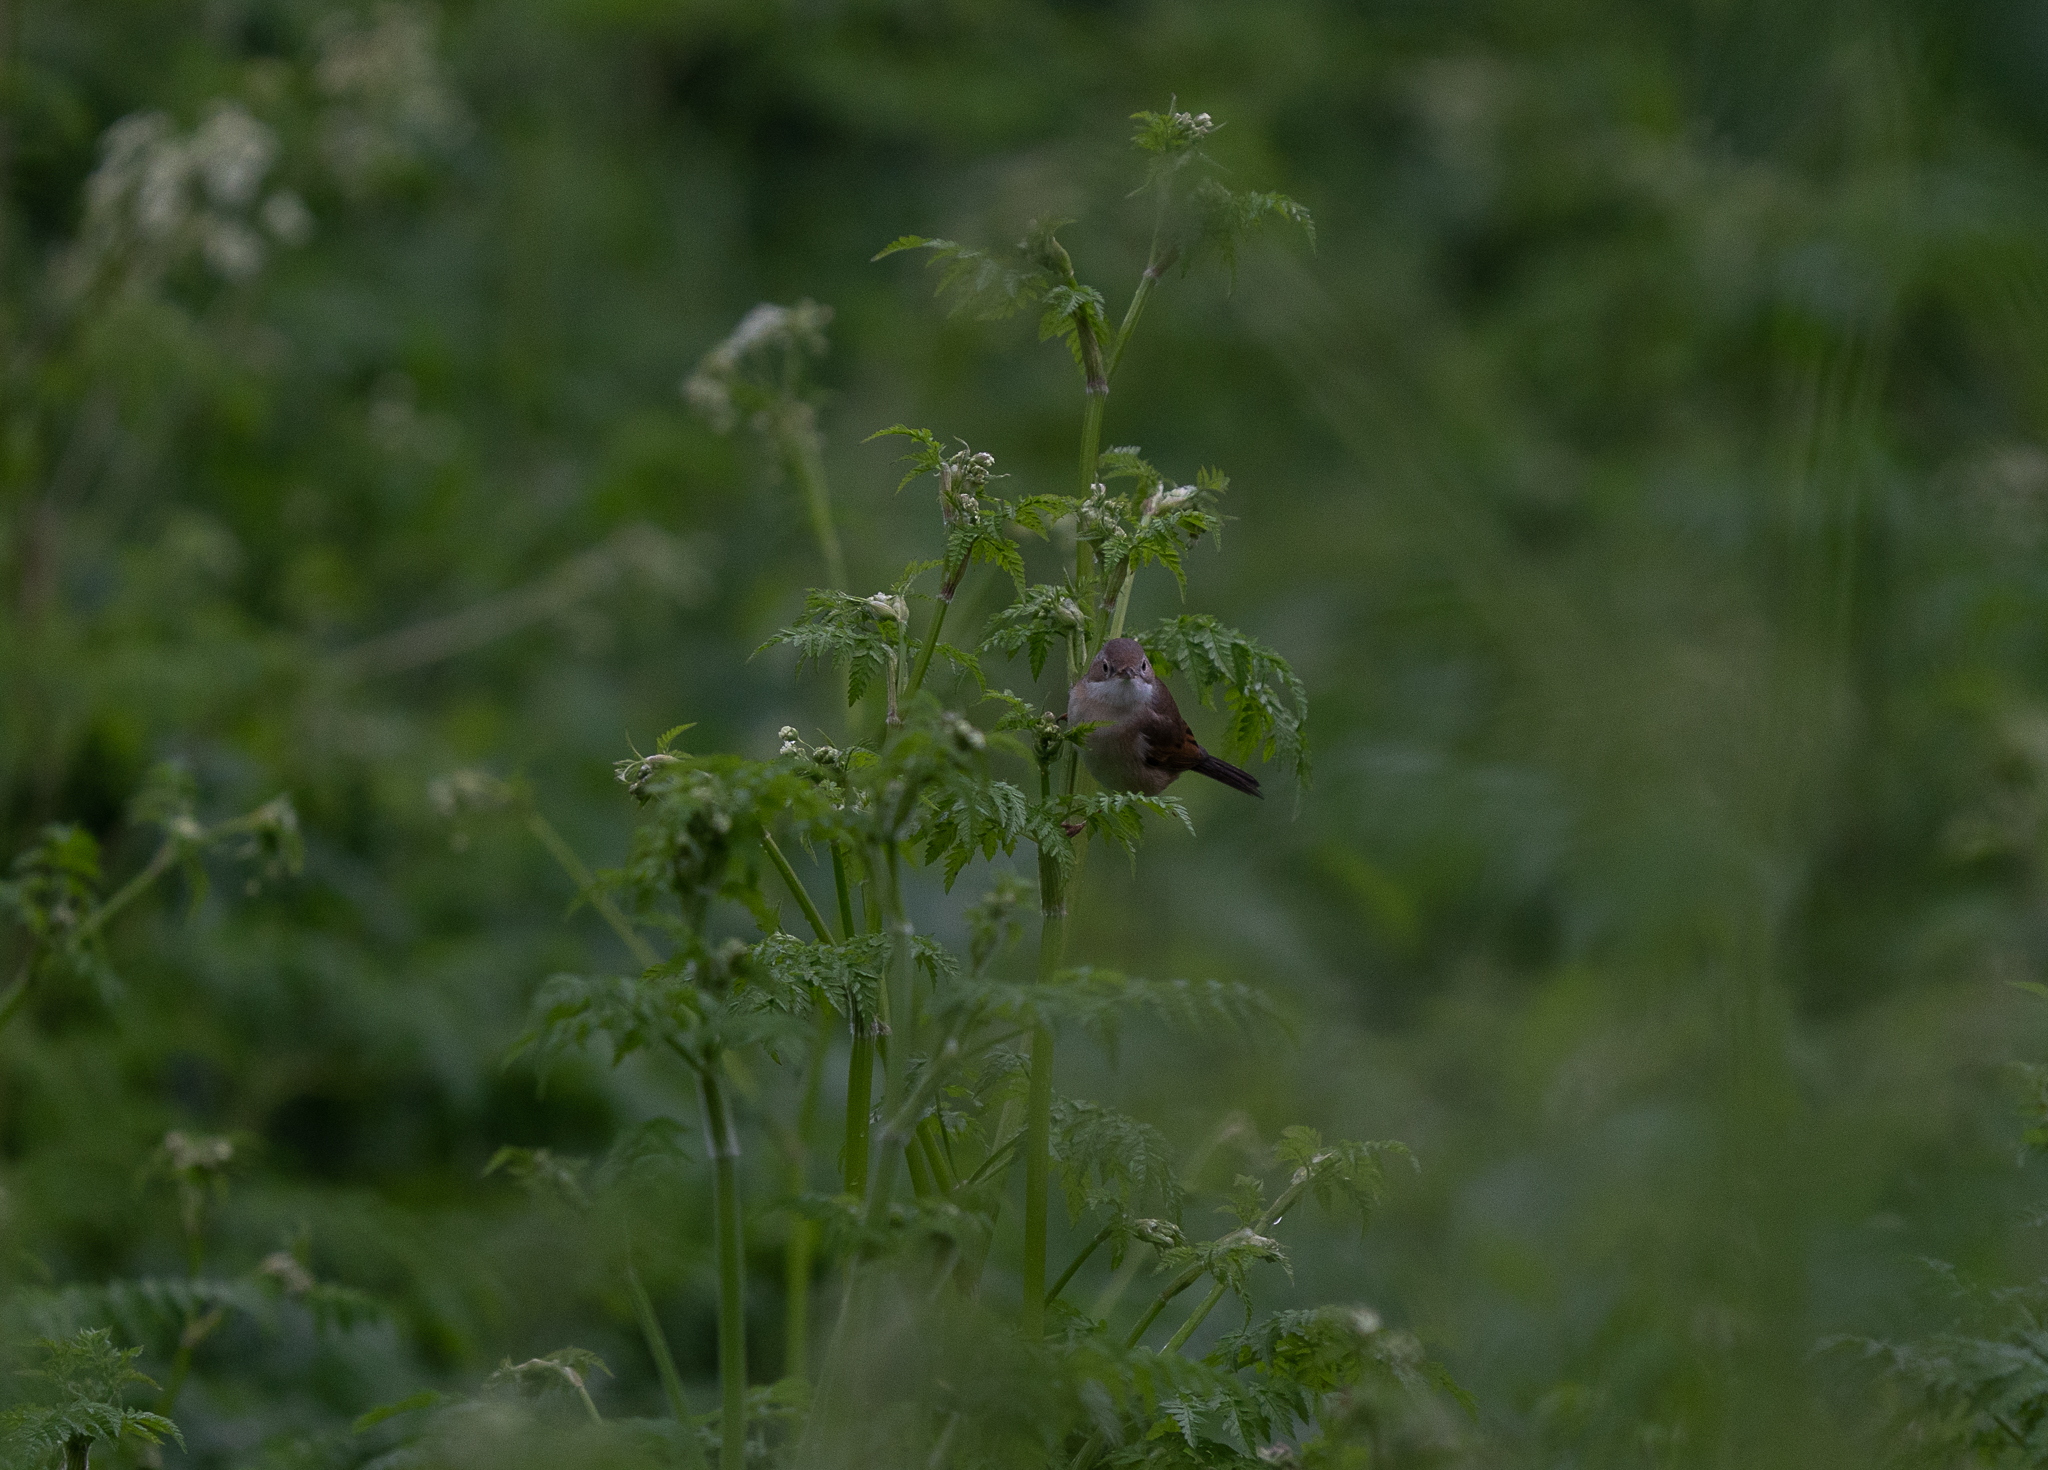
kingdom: Animalia
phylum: Chordata
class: Aves
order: Passeriformes
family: Sylviidae
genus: Sylvia
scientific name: Sylvia communis
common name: Common whitethroat
